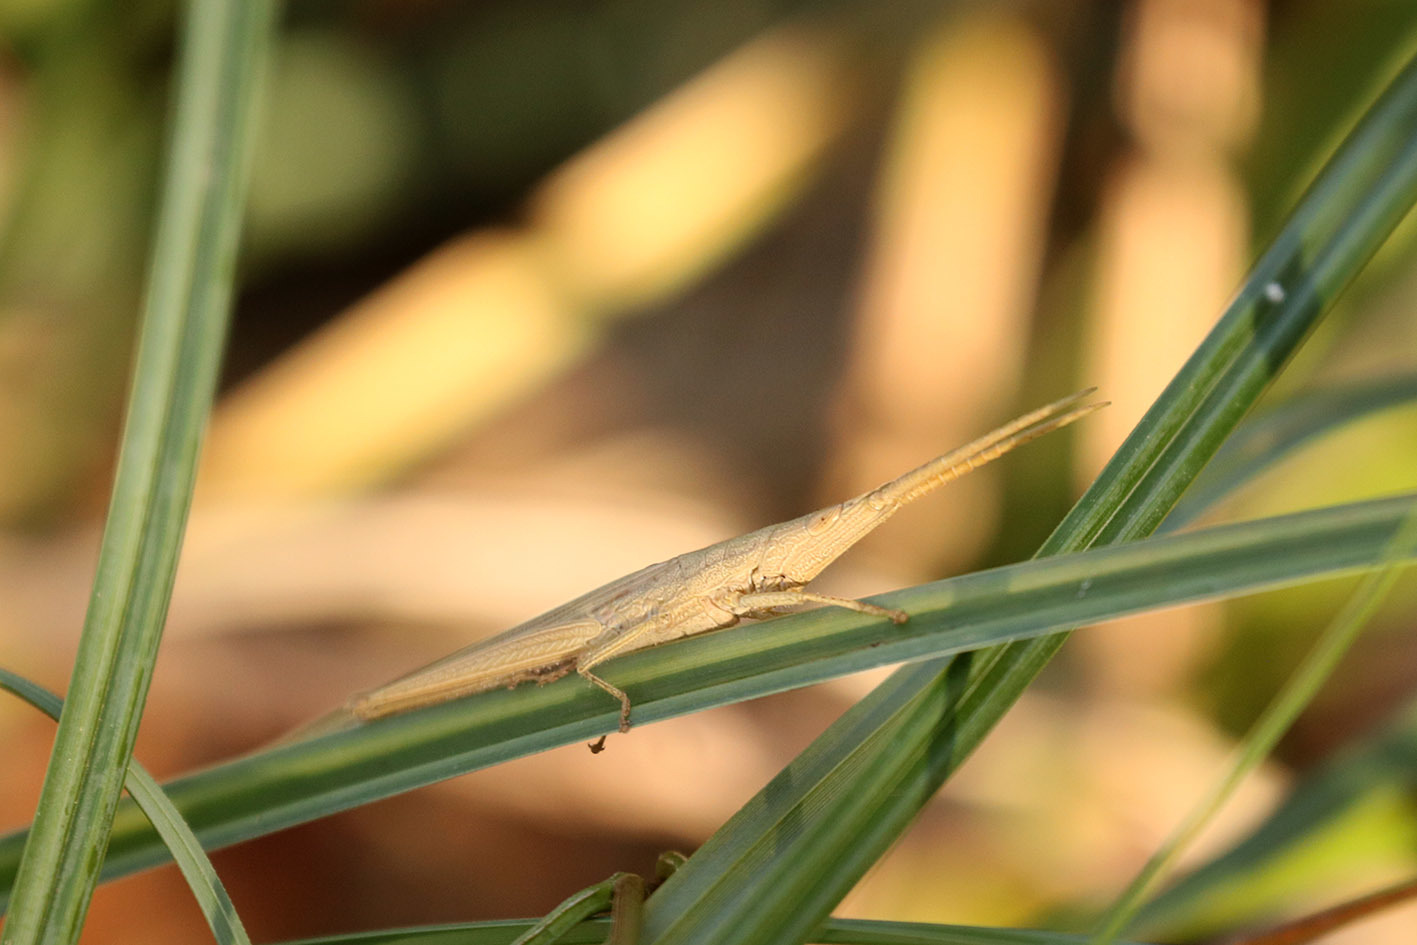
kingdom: Animalia
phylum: Arthropoda
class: Insecta
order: Orthoptera
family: Acrididae
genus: Haroldgrantia
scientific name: Haroldgrantia lignosa
